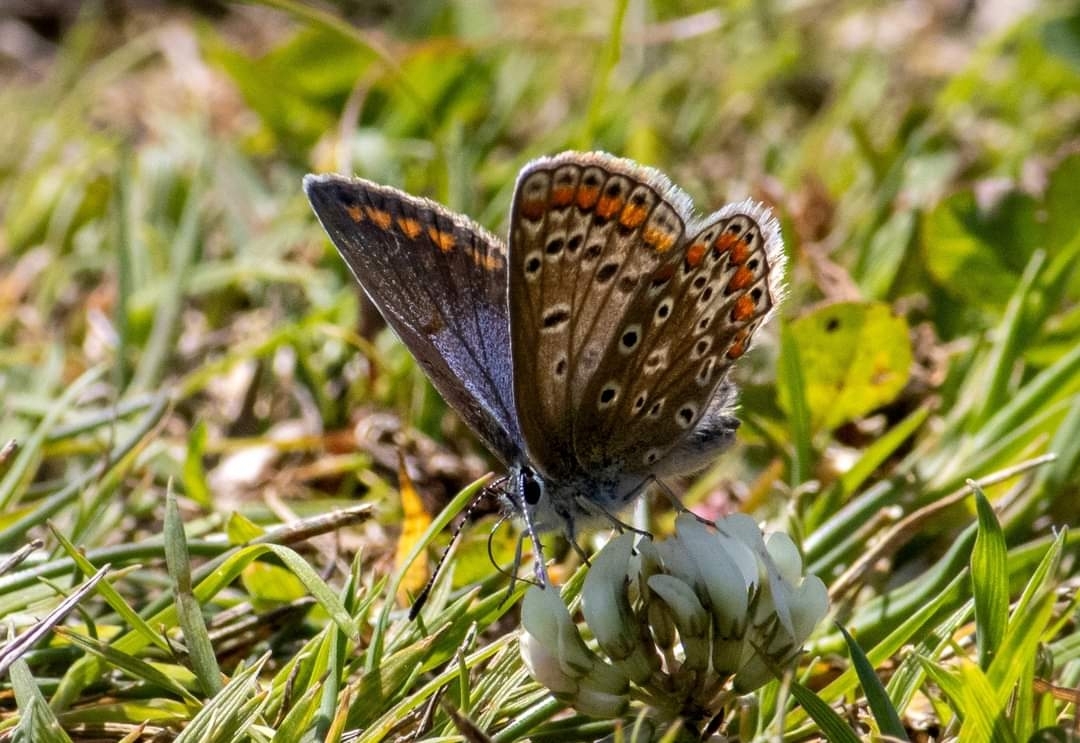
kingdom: Animalia
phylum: Arthropoda
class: Insecta
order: Lepidoptera
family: Lycaenidae
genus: Polyommatus
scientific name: Polyommatus icarus
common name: Common blue
